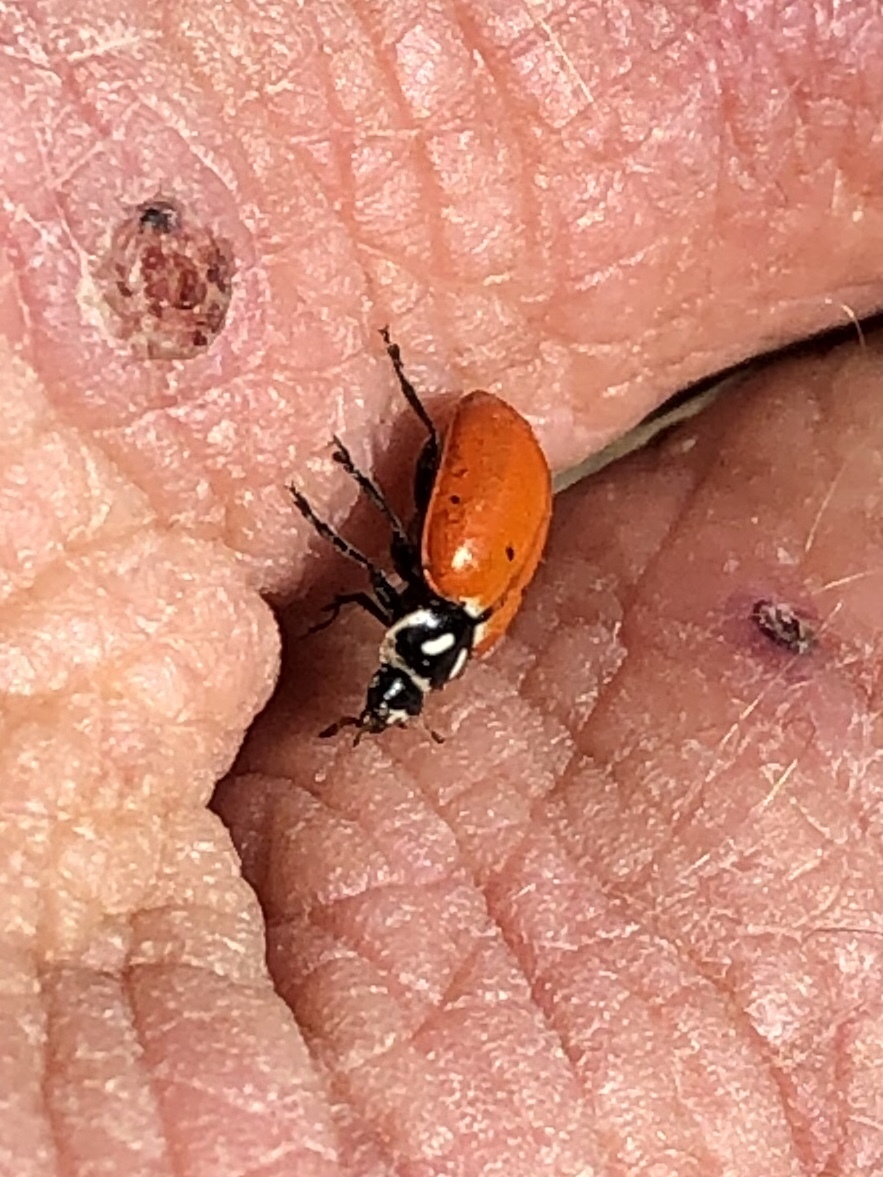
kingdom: Animalia
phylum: Arthropoda
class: Insecta
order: Coleoptera
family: Coccinellidae
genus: Hippodamia
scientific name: Hippodamia convergens
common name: Convergent lady beetle
